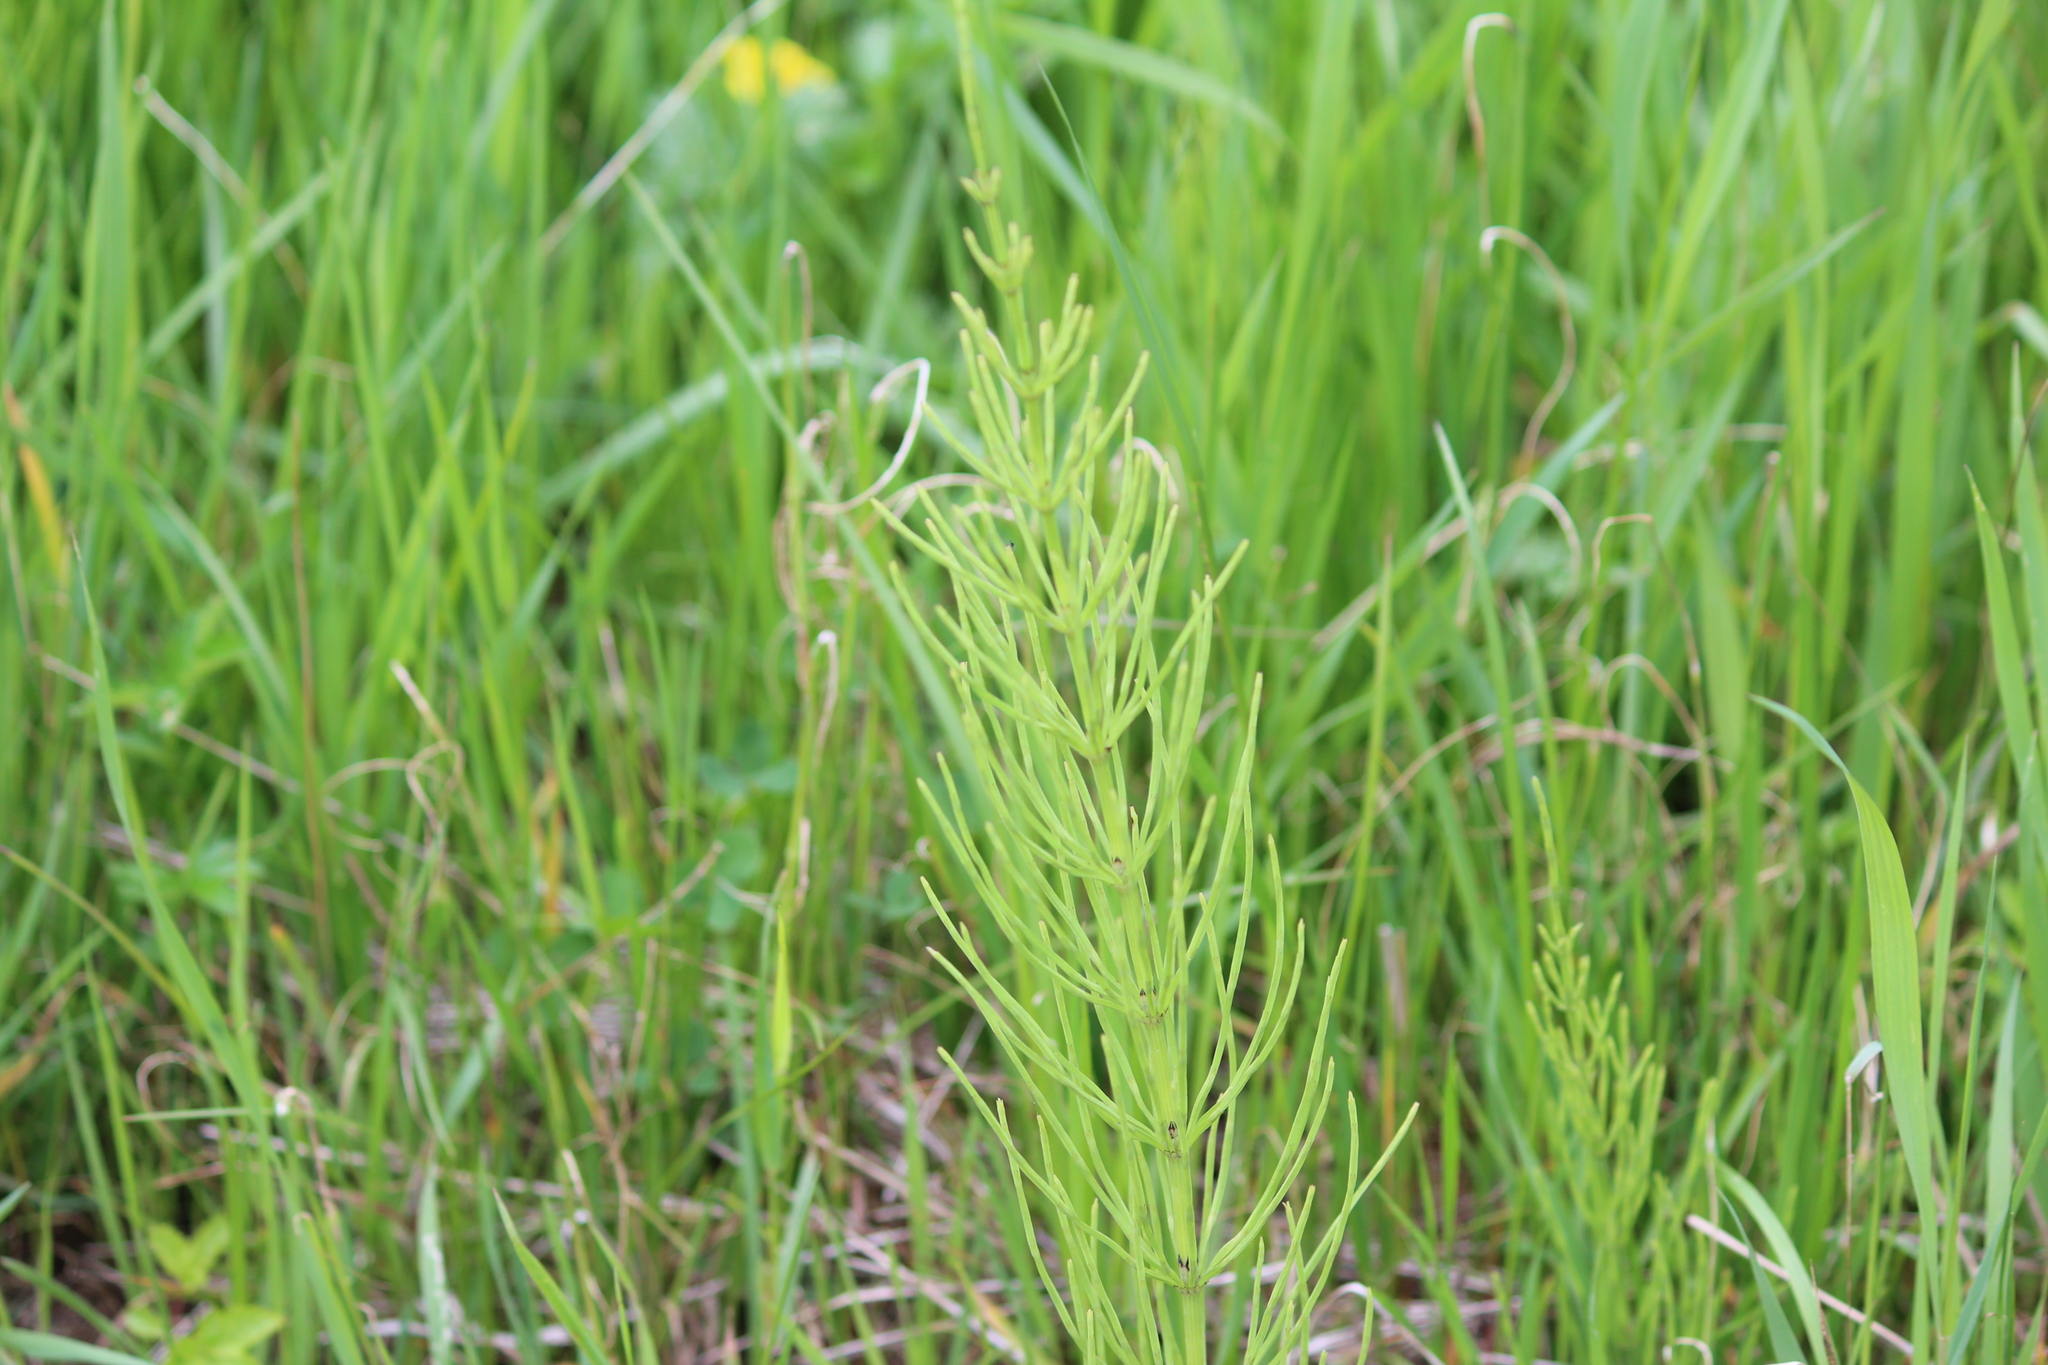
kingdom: Plantae
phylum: Tracheophyta
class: Polypodiopsida
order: Equisetales
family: Equisetaceae
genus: Equisetum
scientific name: Equisetum arvense
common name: Field horsetail
